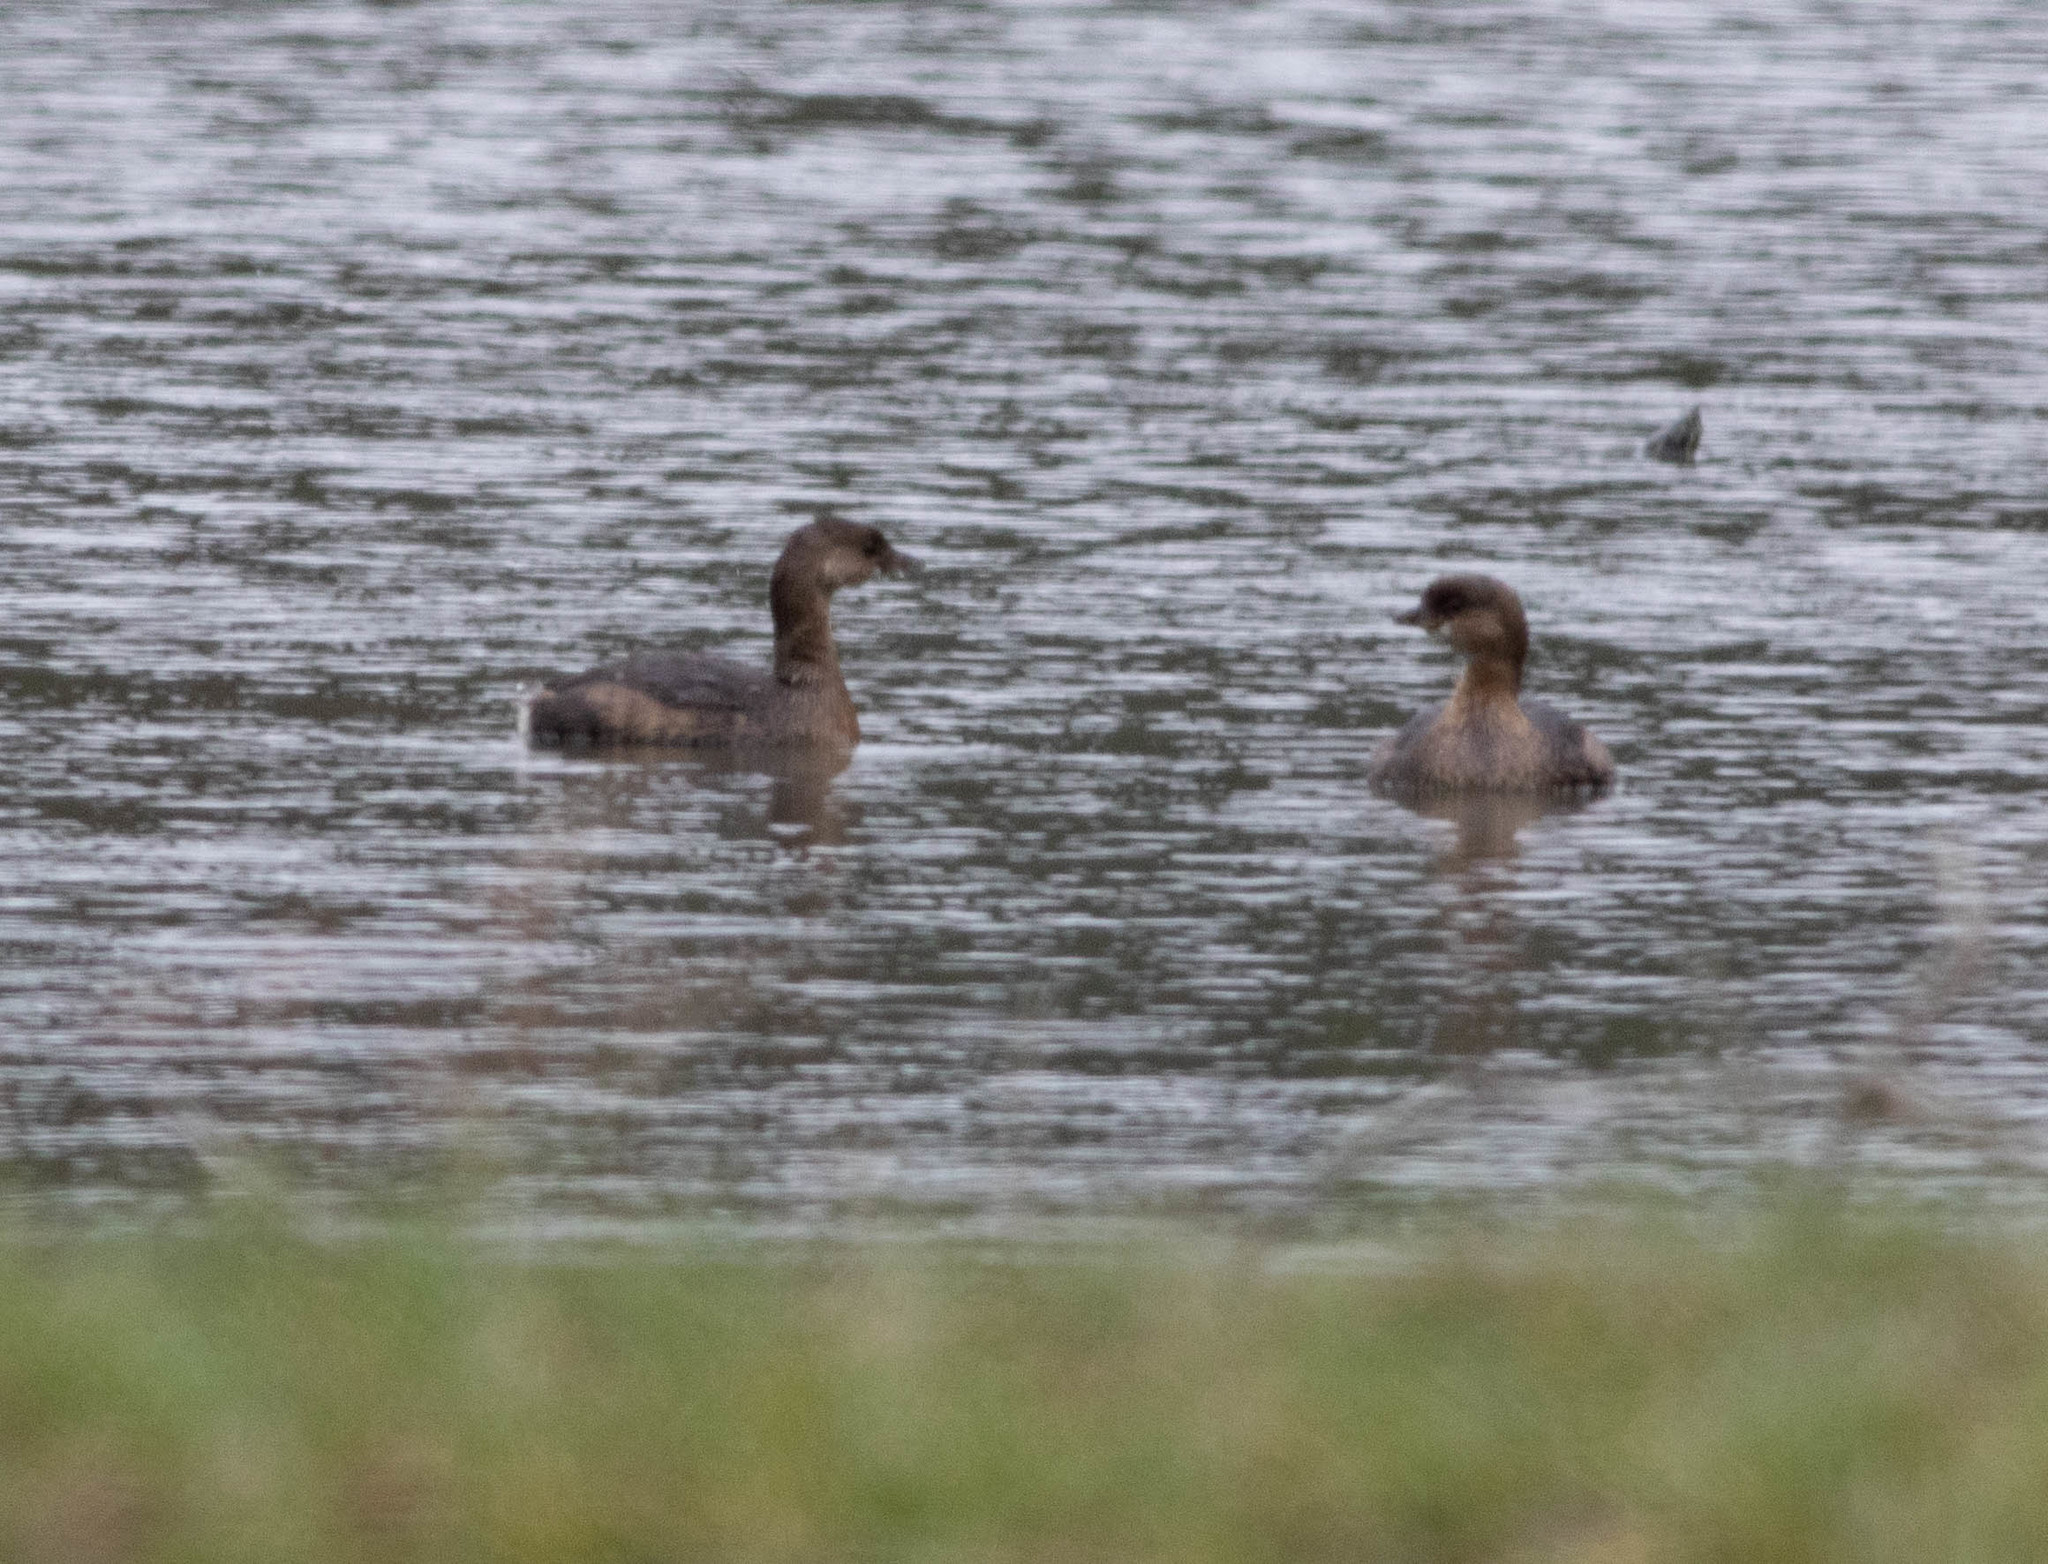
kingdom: Animalia
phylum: Chordata
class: Aves
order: Podicipediformes
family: Podicipedidae
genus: Podilymbus
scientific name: Podilymbus podiceps
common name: Pied-billed grebe
